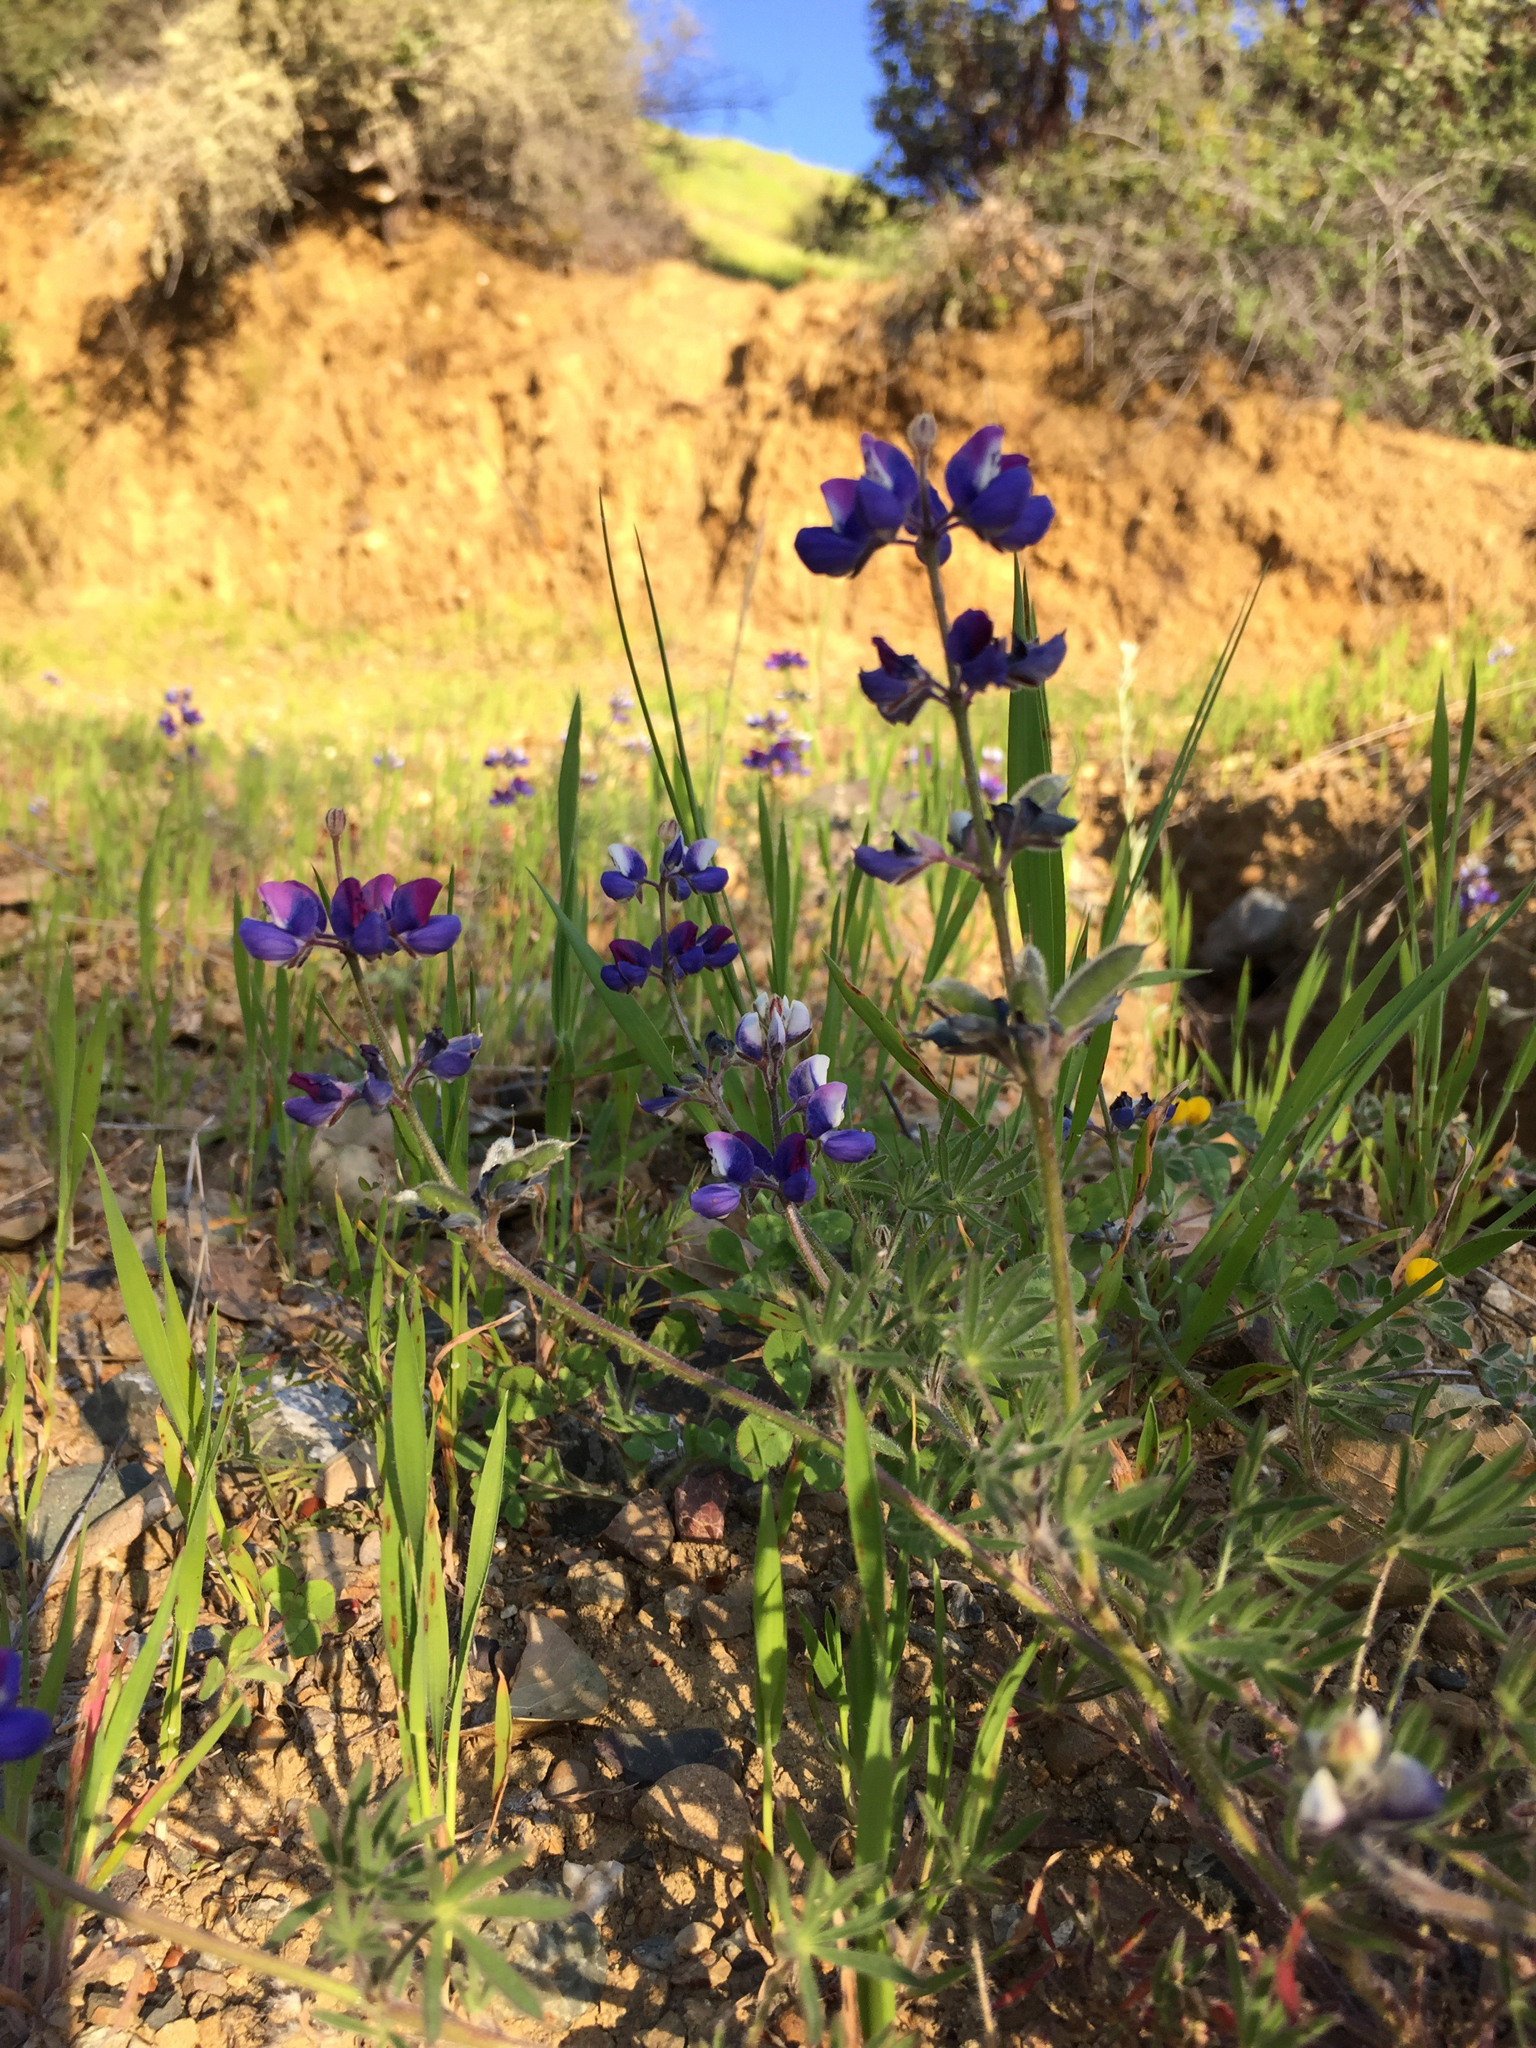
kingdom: Plantae
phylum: Tracheophyta
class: Magnoliopsida
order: Fabales
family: Fabaceae
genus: Lupinus
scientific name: Lupinus bicolor
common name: Miniature lupine
